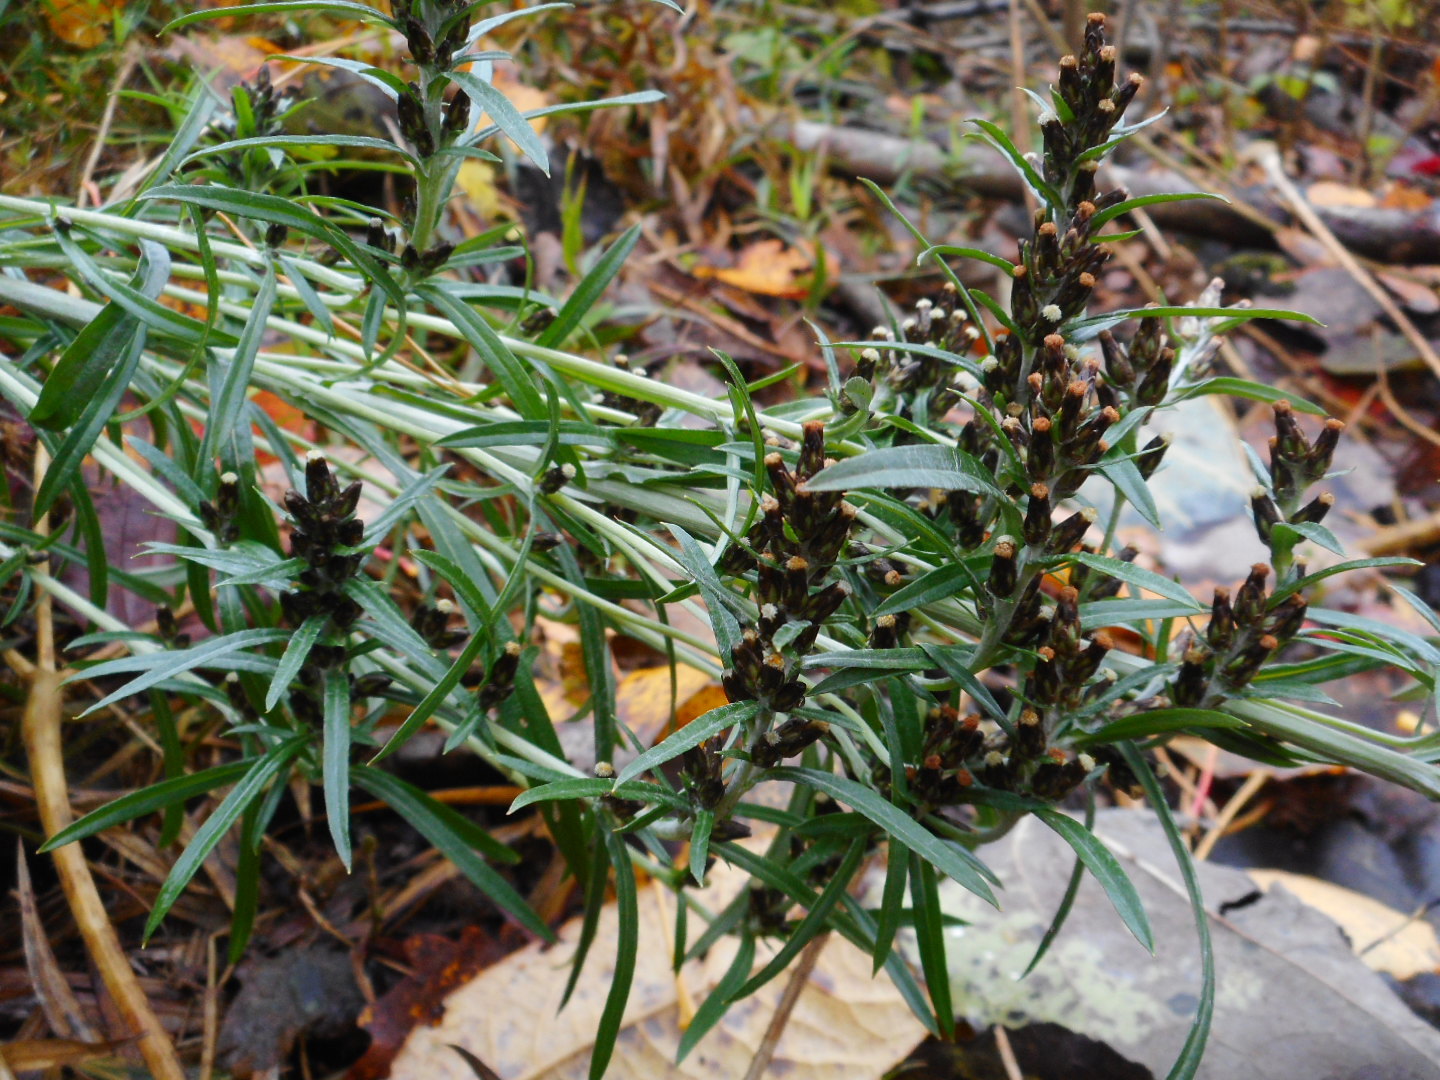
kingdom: Plantae
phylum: Tracheophyta
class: Magnoliopsida
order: Asterales
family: Asteraceae
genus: Omalotheca
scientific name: Omalotheca sylvatica
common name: Heath cudweed
